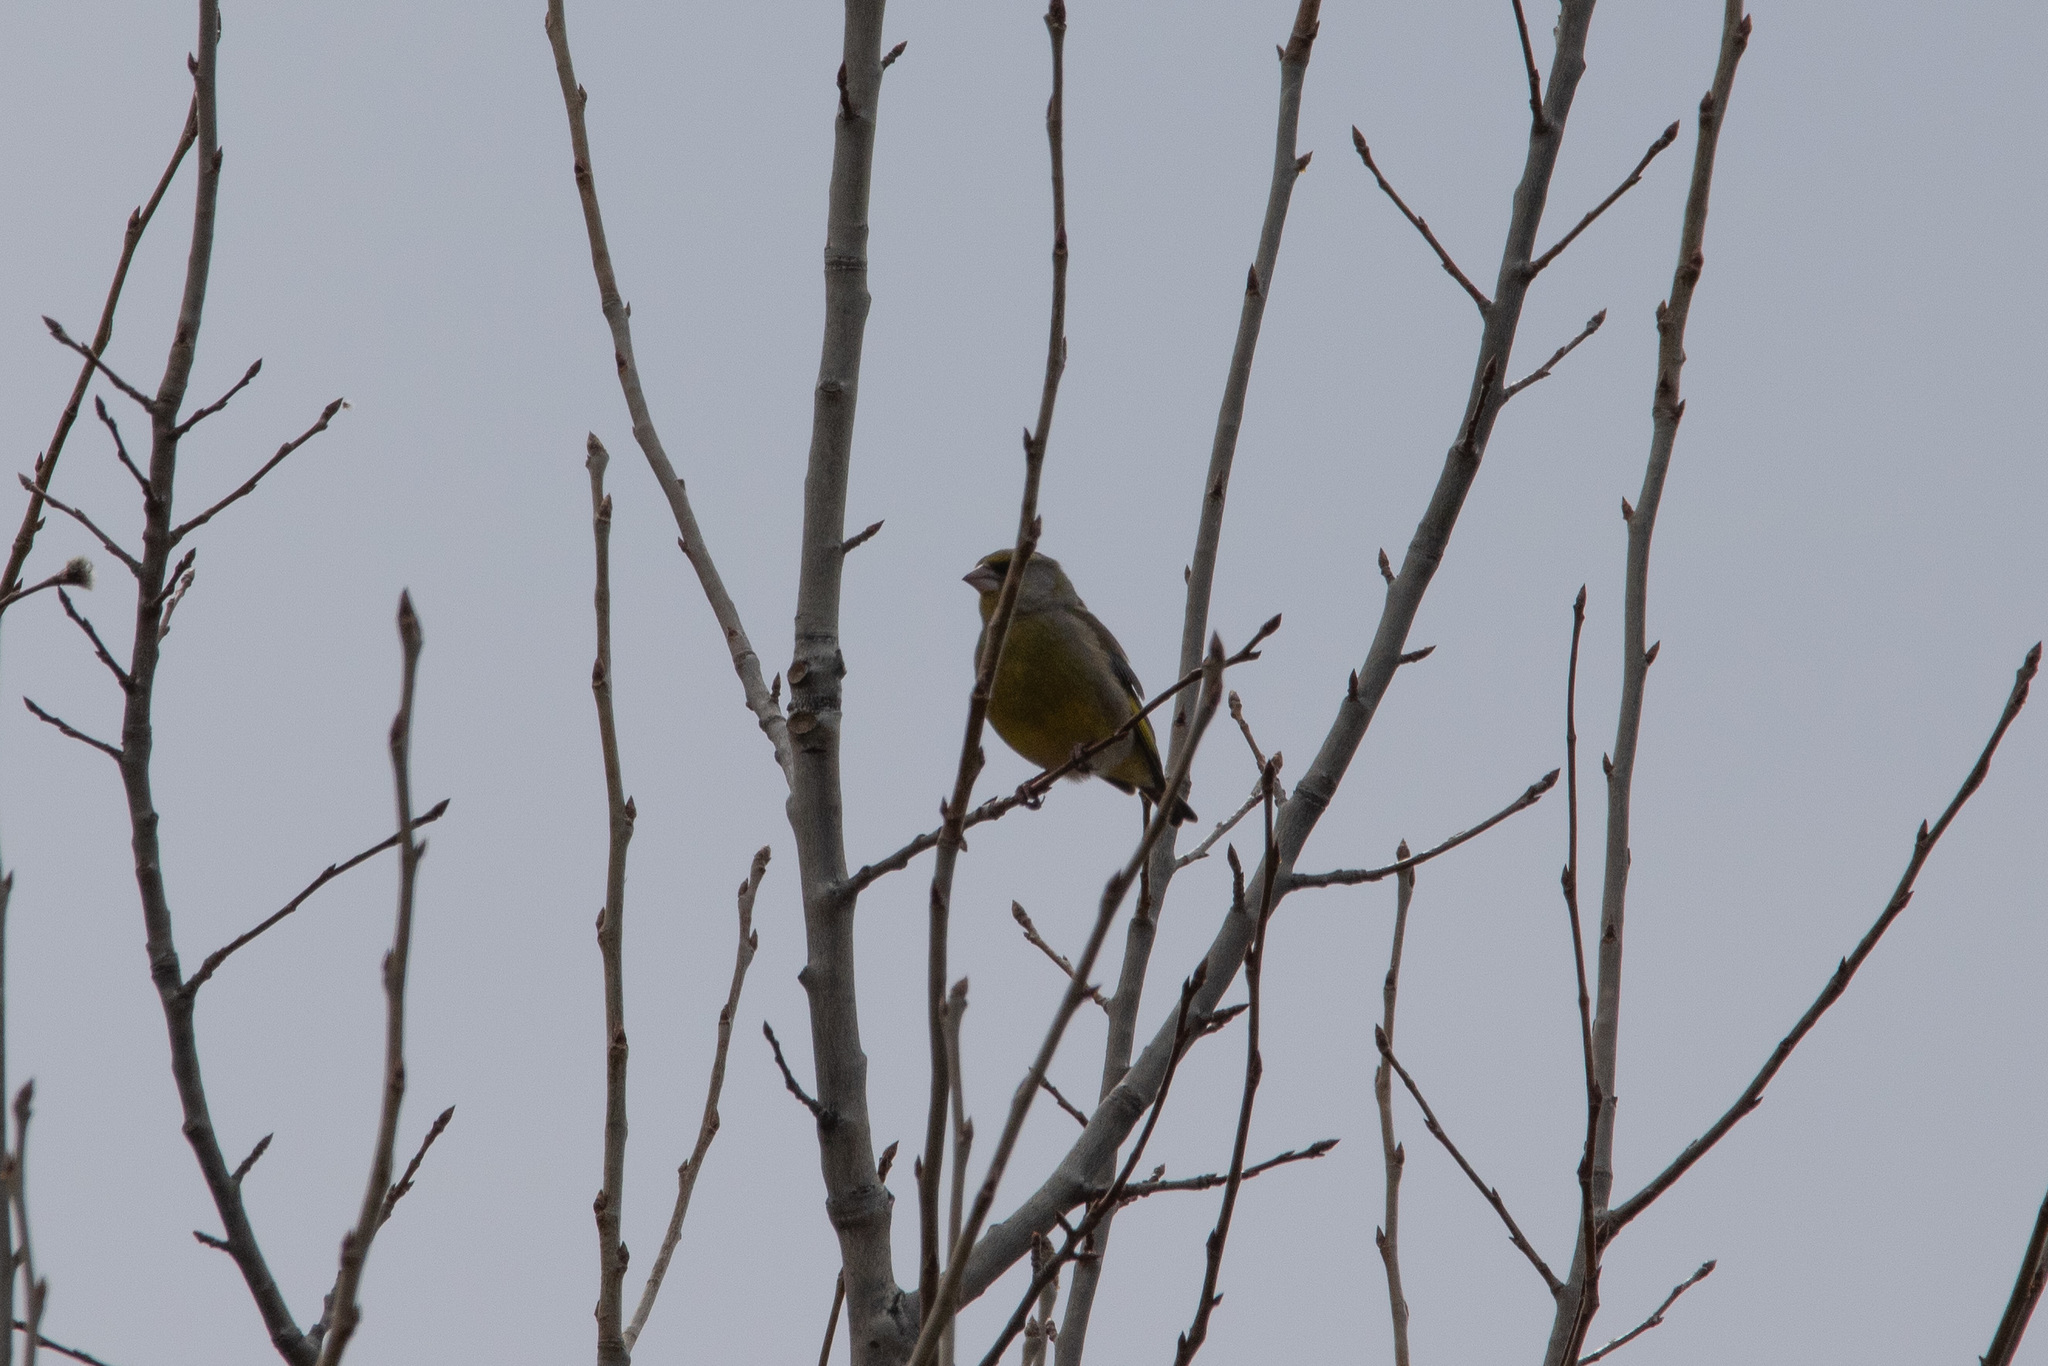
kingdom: Plantae
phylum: Tracheophyta
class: Liliopsida
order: Poales
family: Poaceae
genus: Chloris
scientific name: Chloris chloris
